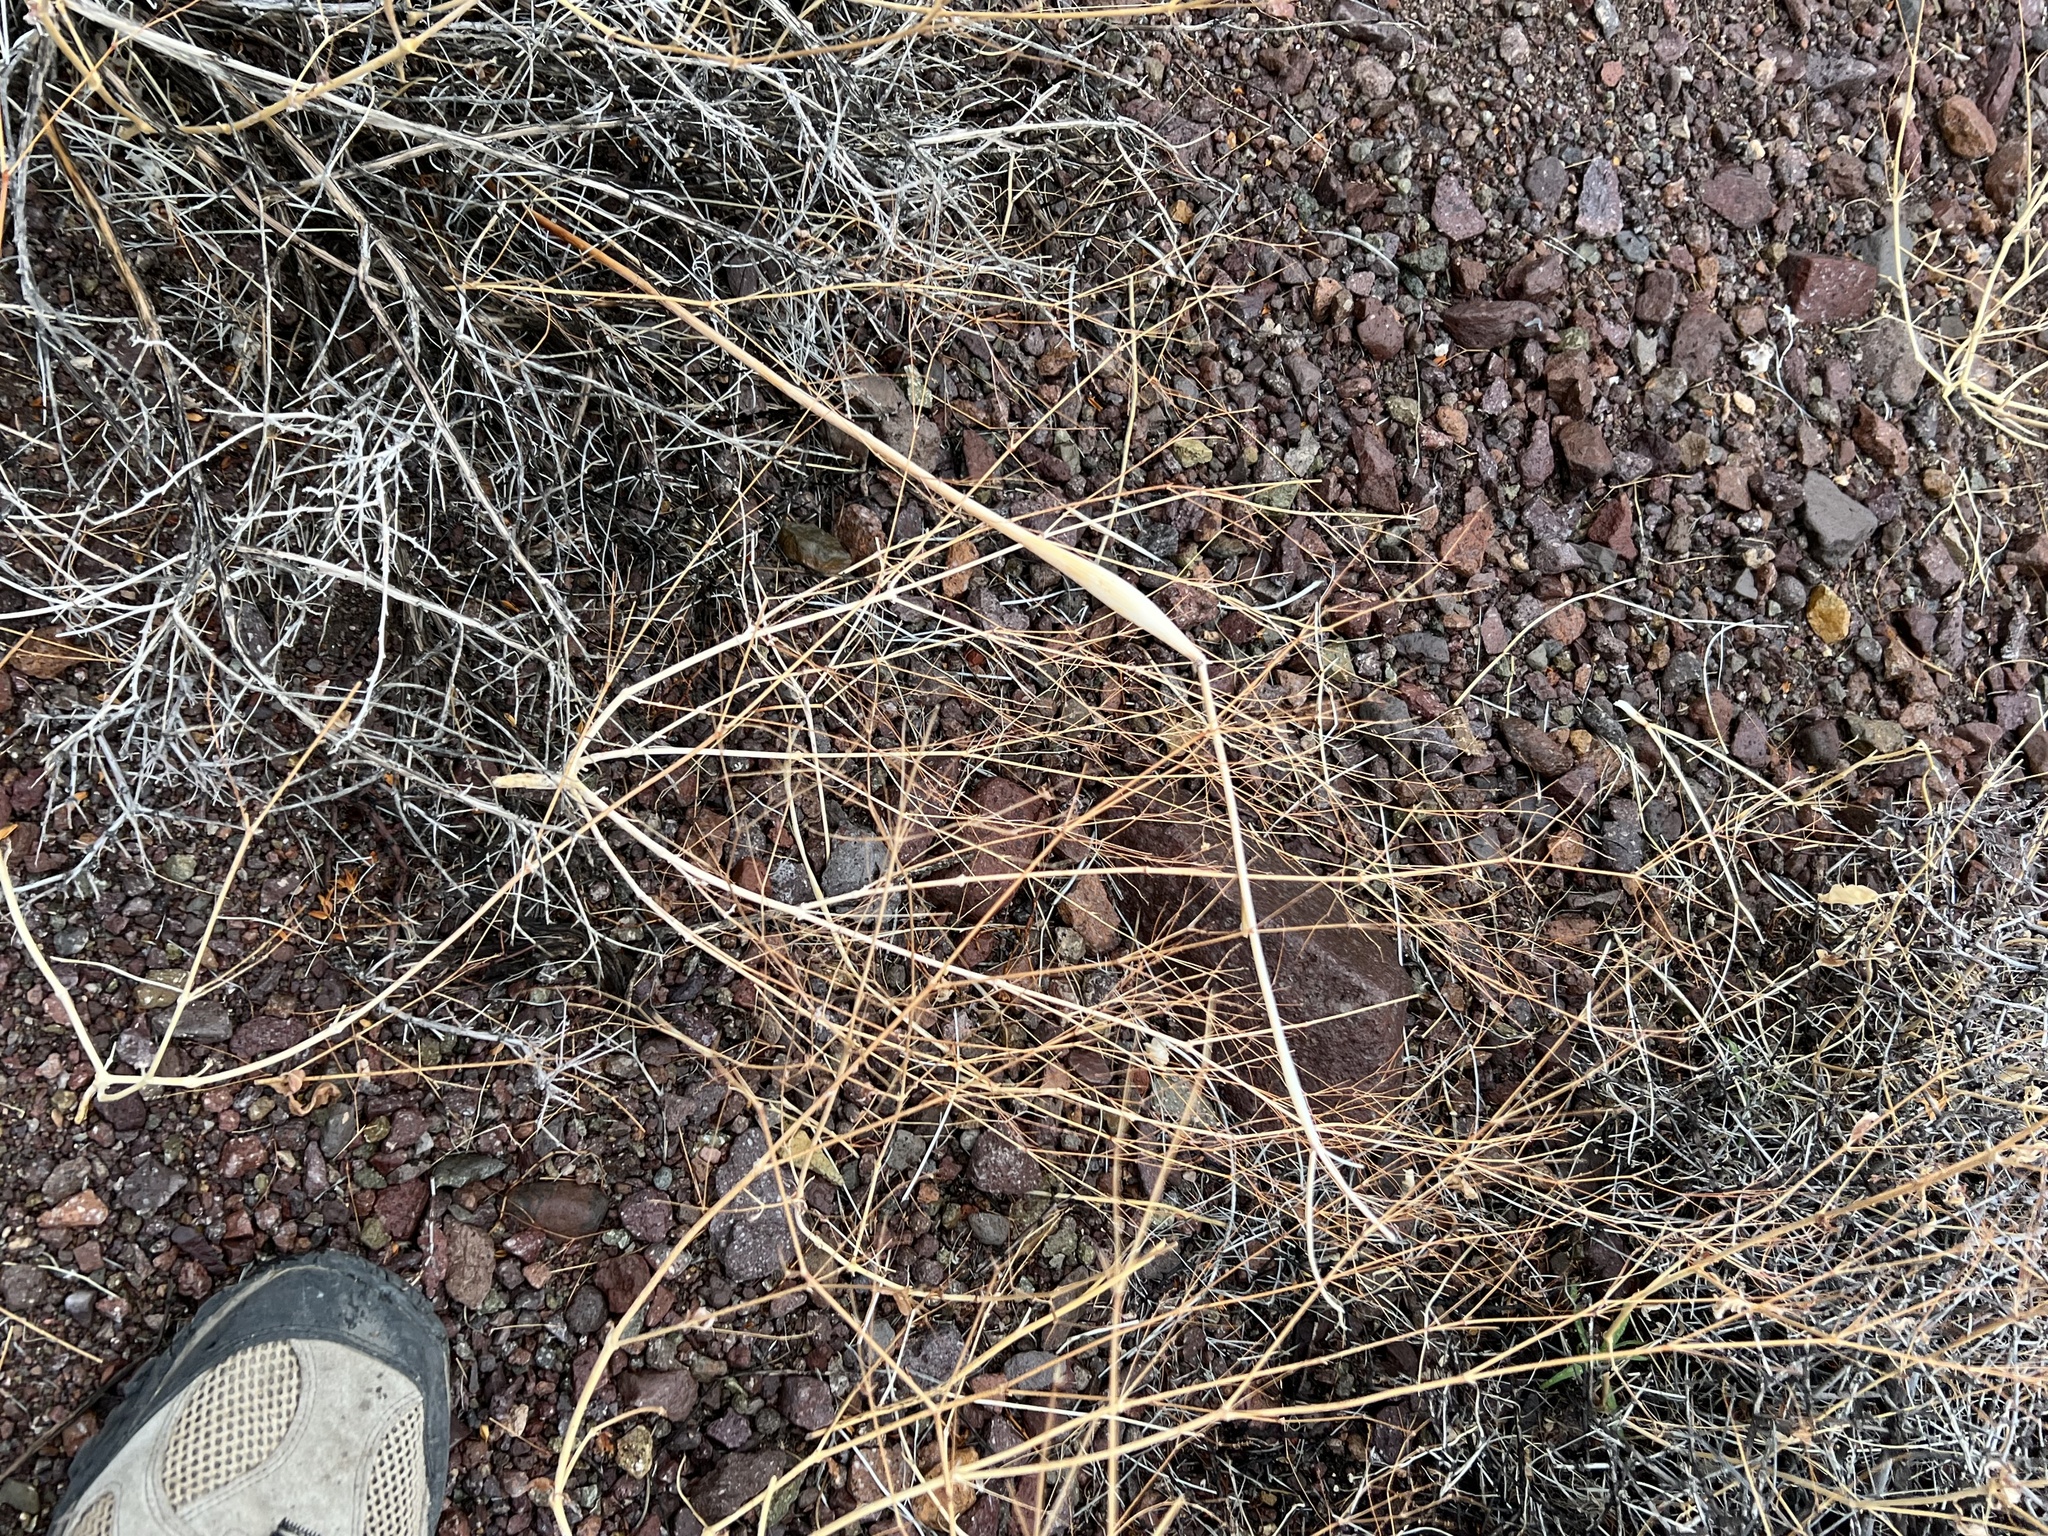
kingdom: Plantae
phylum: Tracheophyta
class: Magnoliopsida
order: Caryophyllales
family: Polygonaceae
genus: Eriogonum
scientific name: Eriogonum inflatum
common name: Desert trumpet
